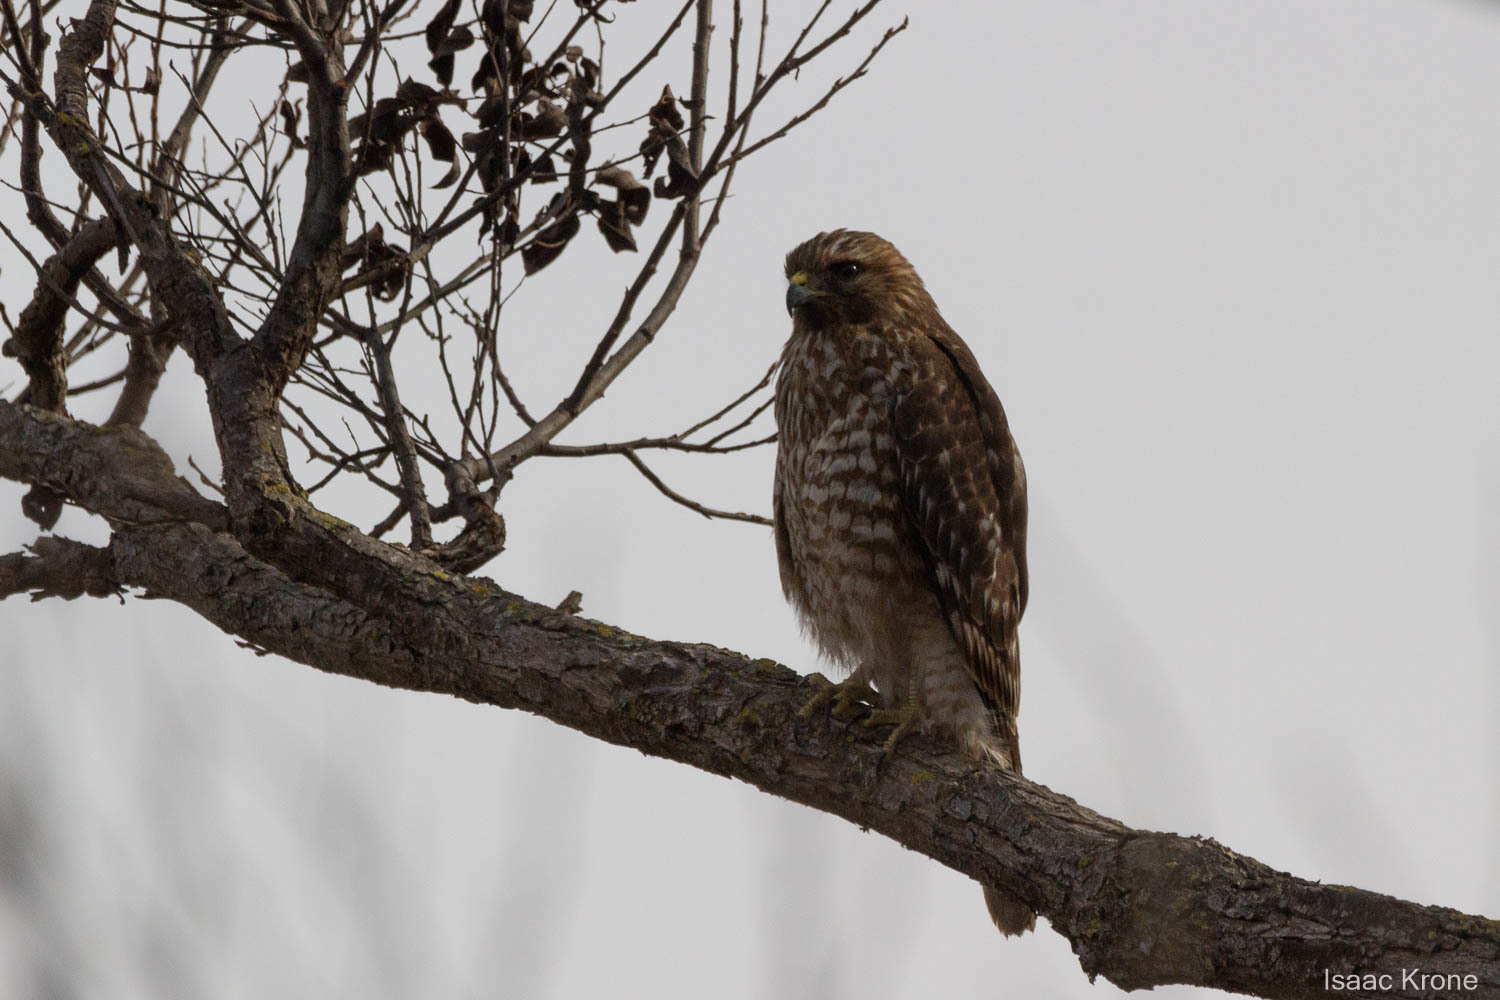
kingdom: Animalia
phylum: Chordata
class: Aves
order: Accipitriformes
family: Accipitridae
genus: Buteo
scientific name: Buteo lineatus
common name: Red-shouldered hawk
